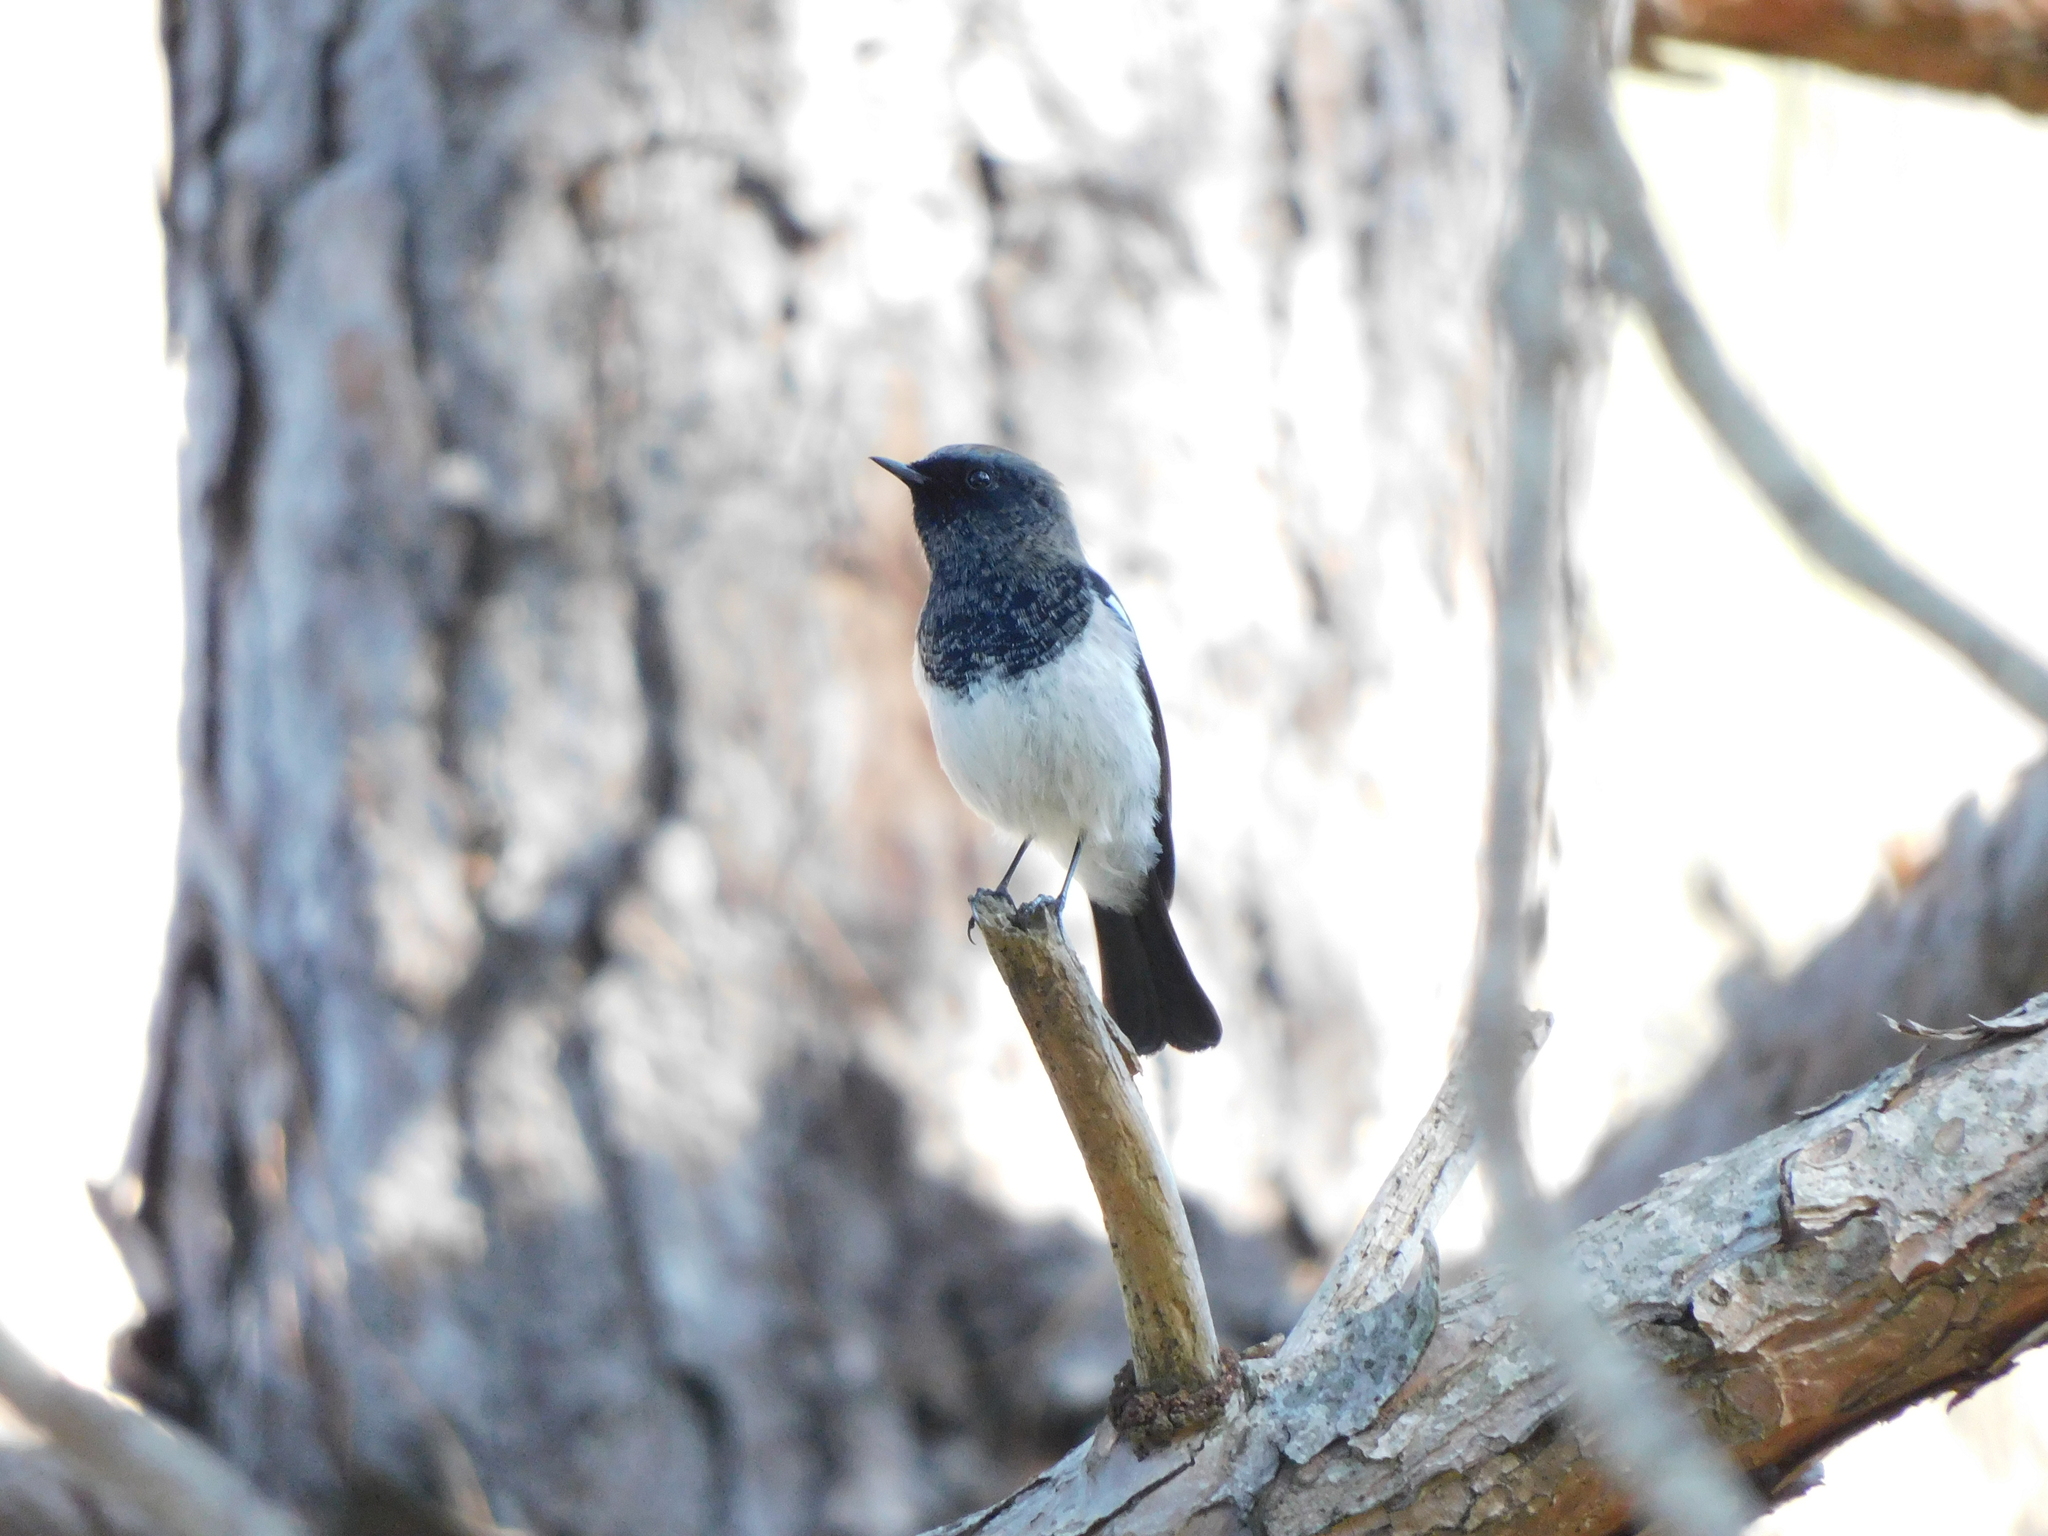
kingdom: Animalia
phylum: Chordata
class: Aves
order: Passeriformes
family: Muscicapidae
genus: Phoenicurus
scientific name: Phoenicurus coeruleocephala
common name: Blue-capped redstart
